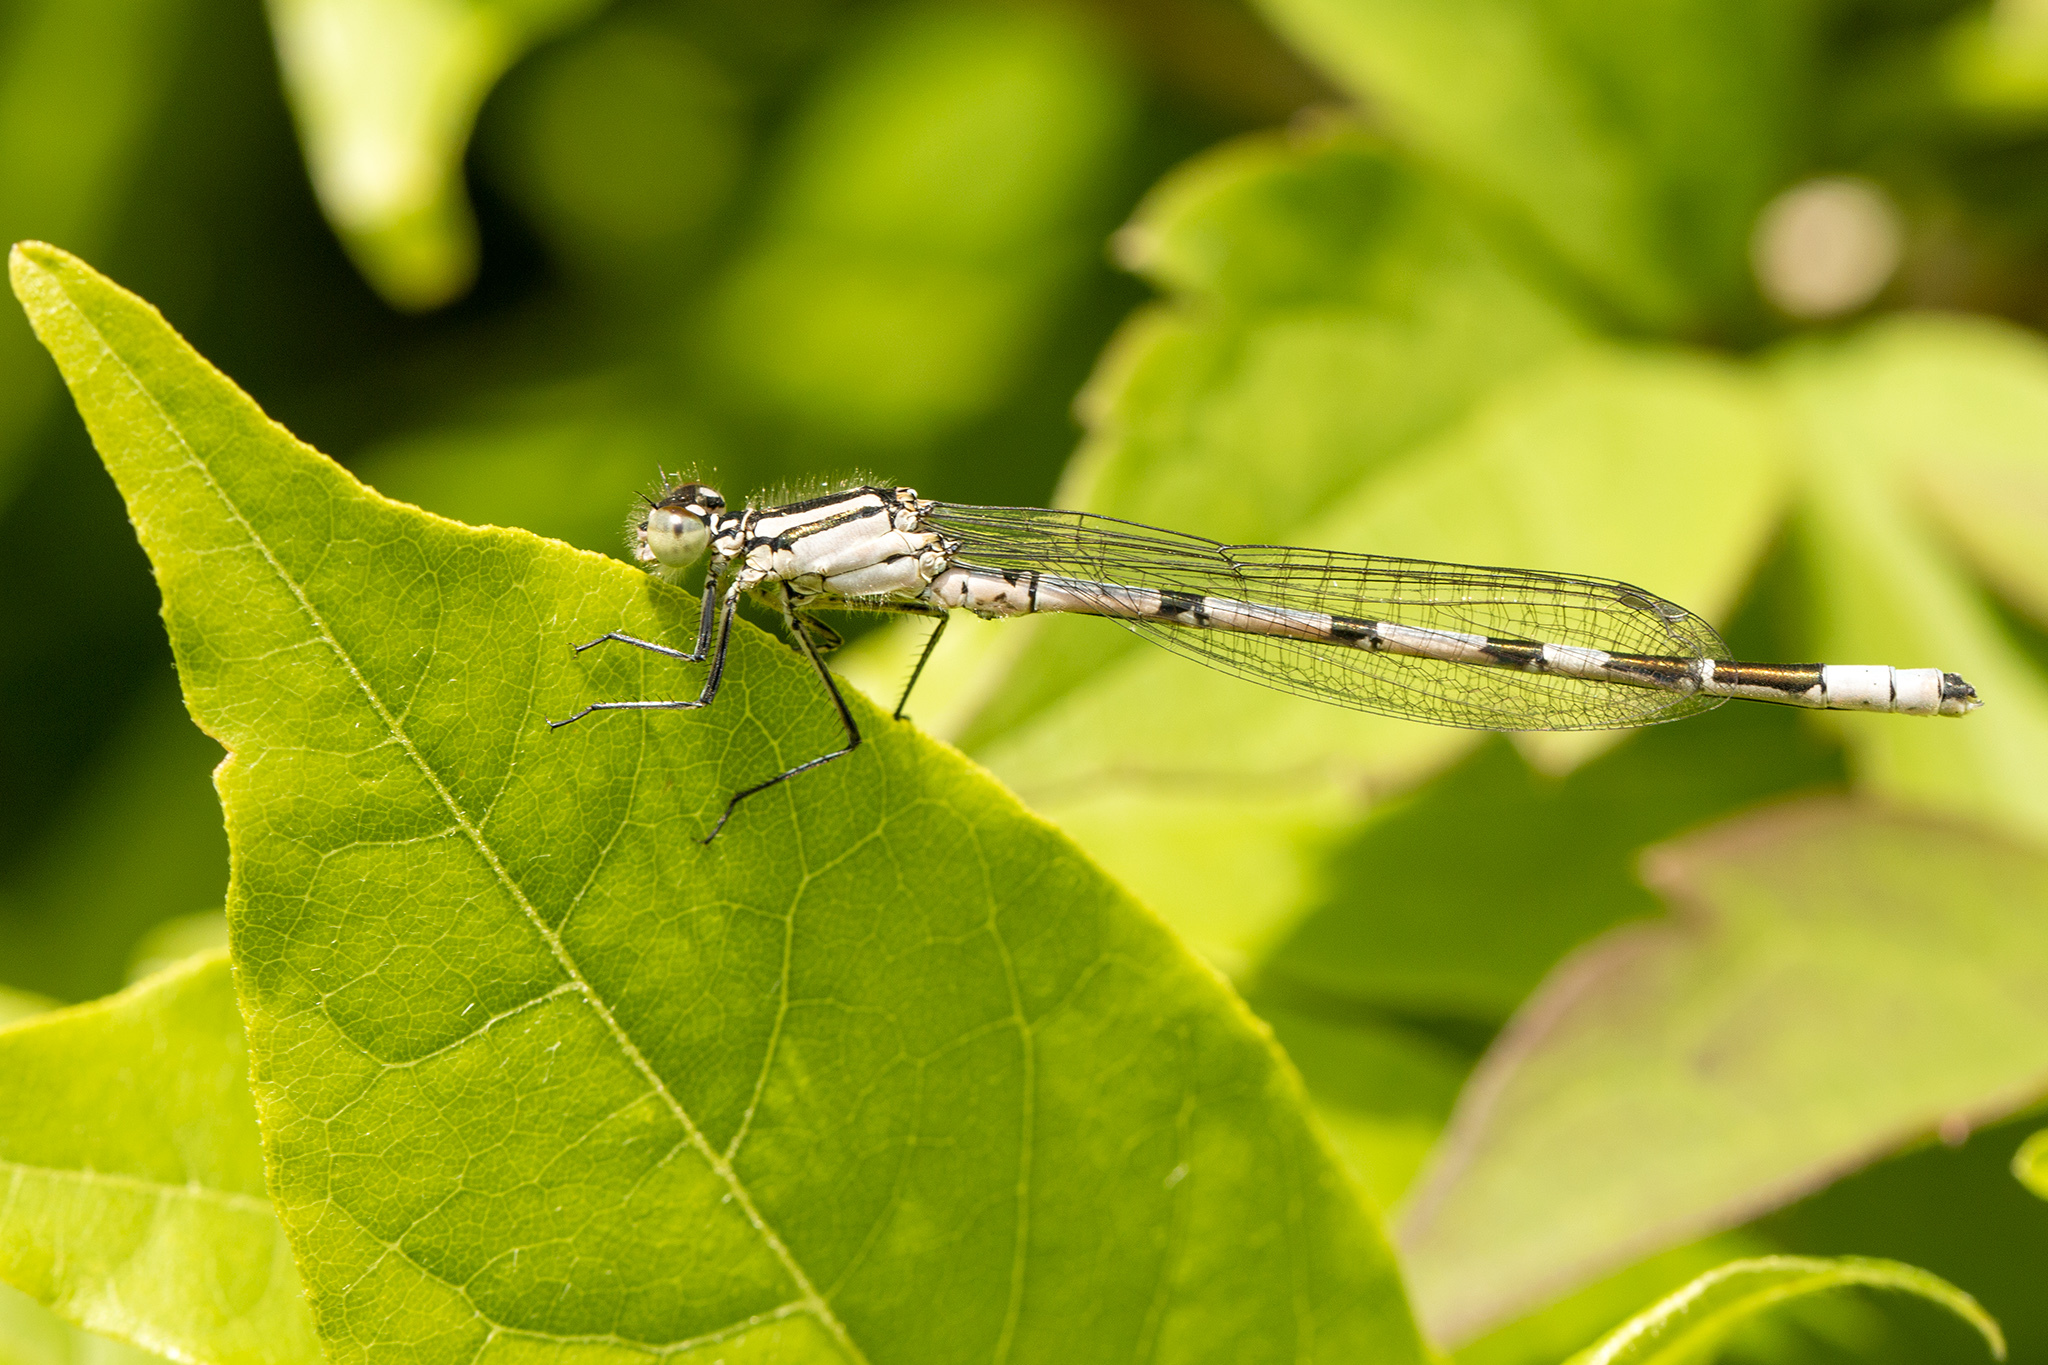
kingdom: Animalia
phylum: Arthropoda
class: Insecta
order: Odonata
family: Coenagrionidae
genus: Enallagma
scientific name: Enallagma cyathigerum
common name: Common blue damselfly
